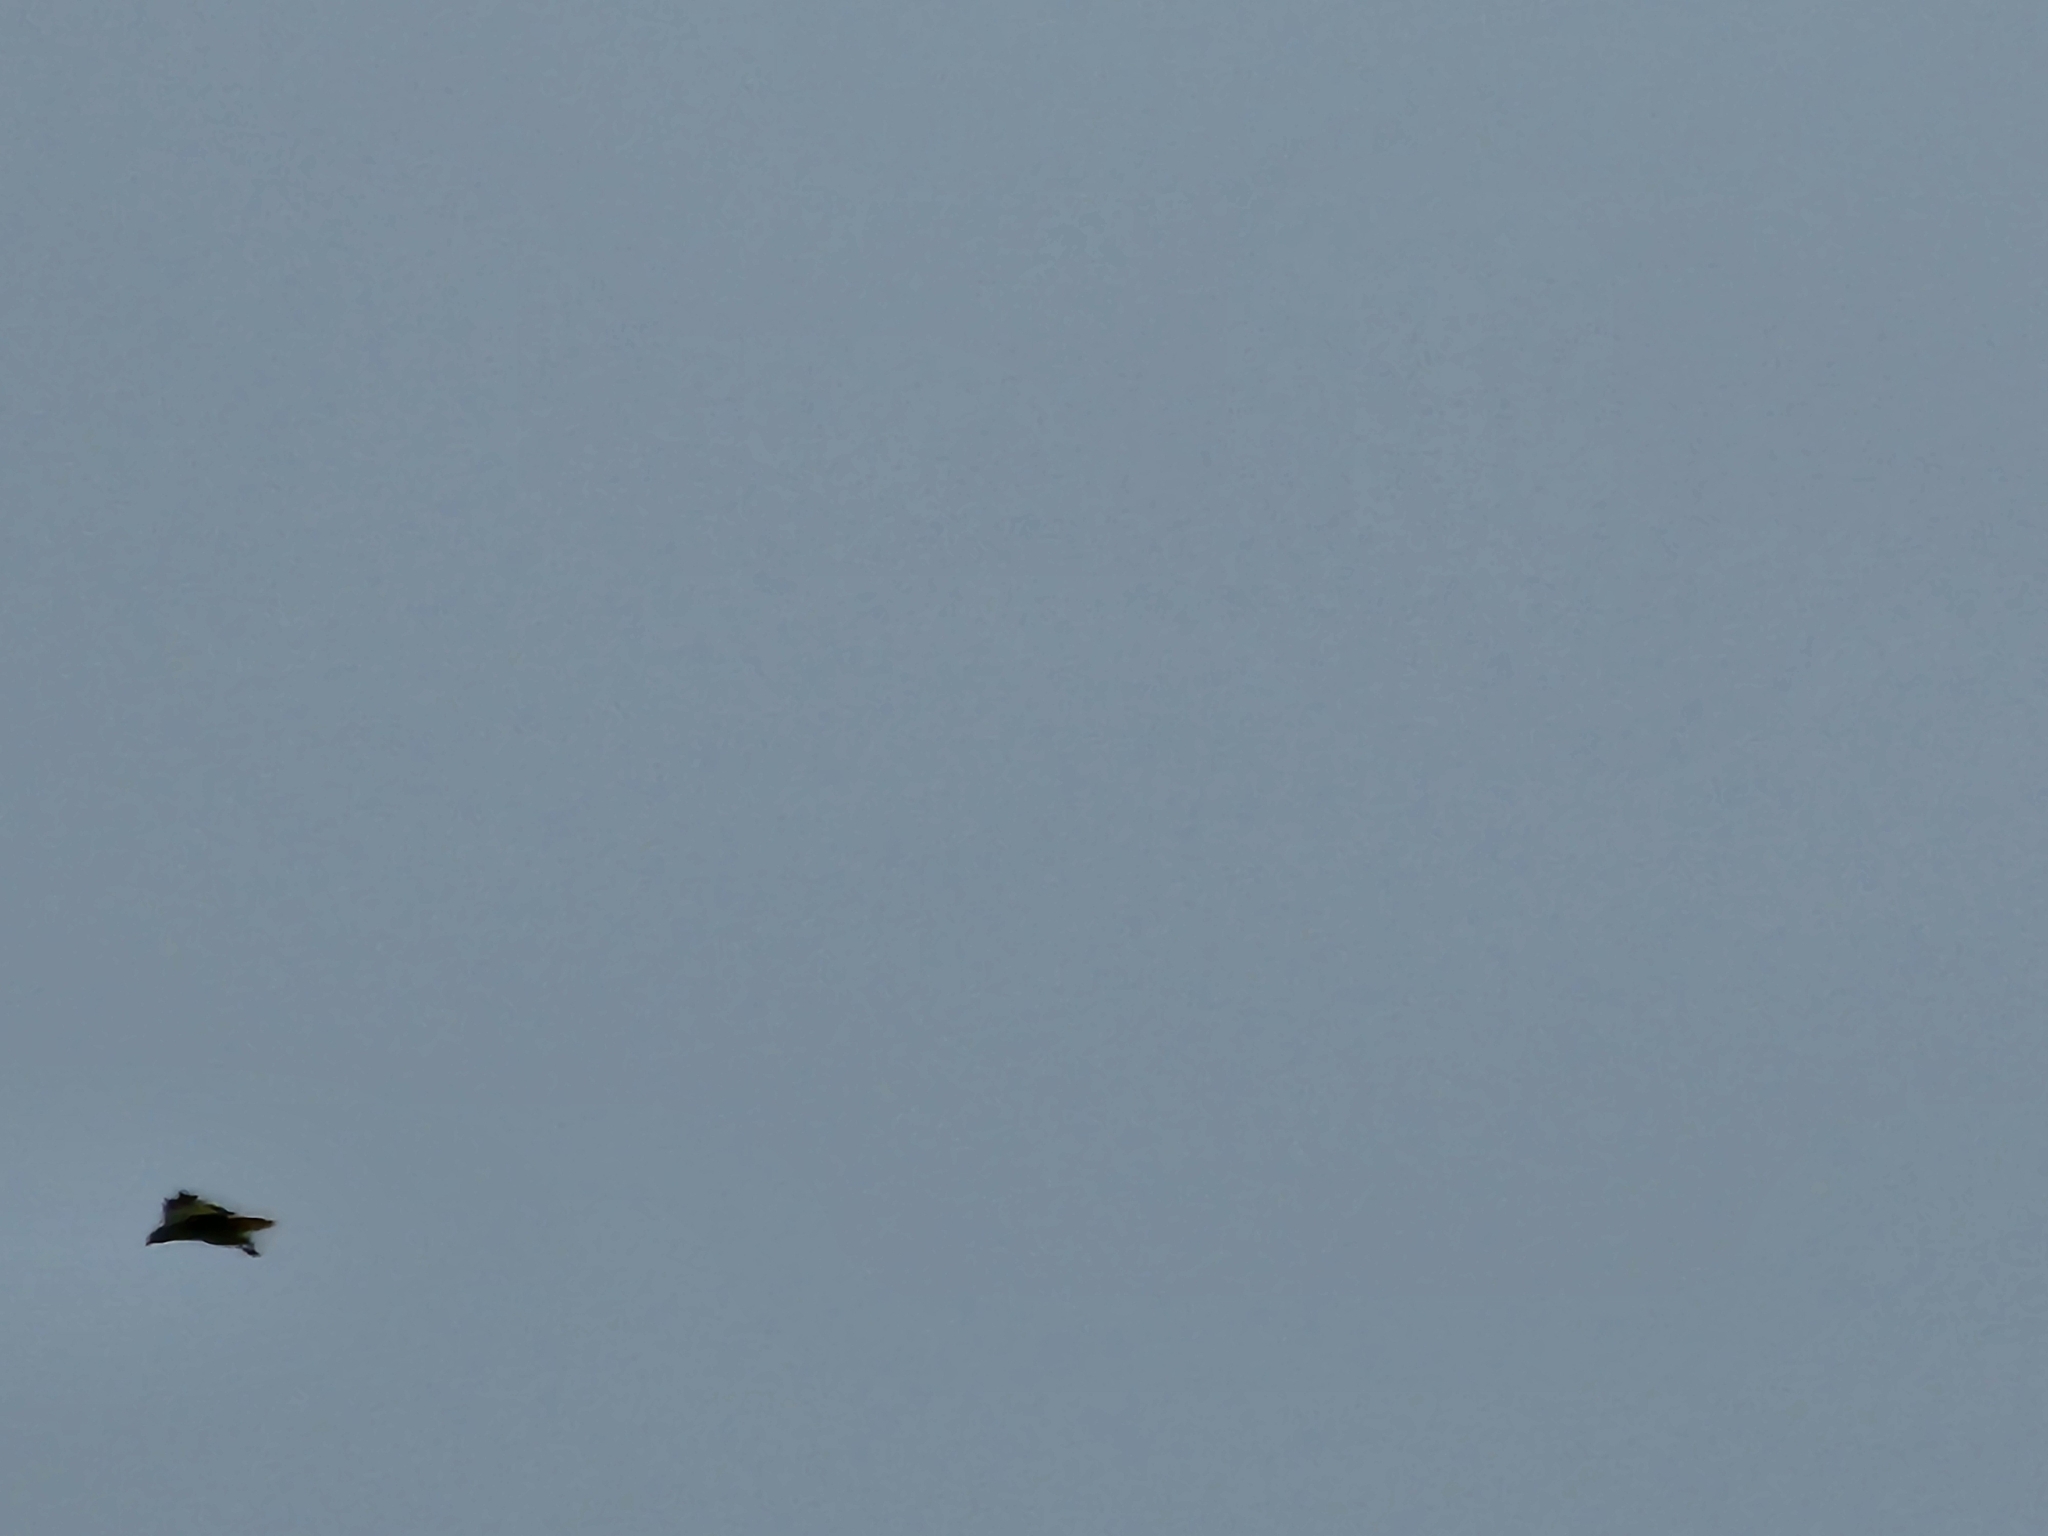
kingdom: Animalia
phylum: Chordata
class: Aves
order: Accipitriformes
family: Accipitridae
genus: Buteo
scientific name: Buteo jamaicensis
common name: Red-tailed hawk
